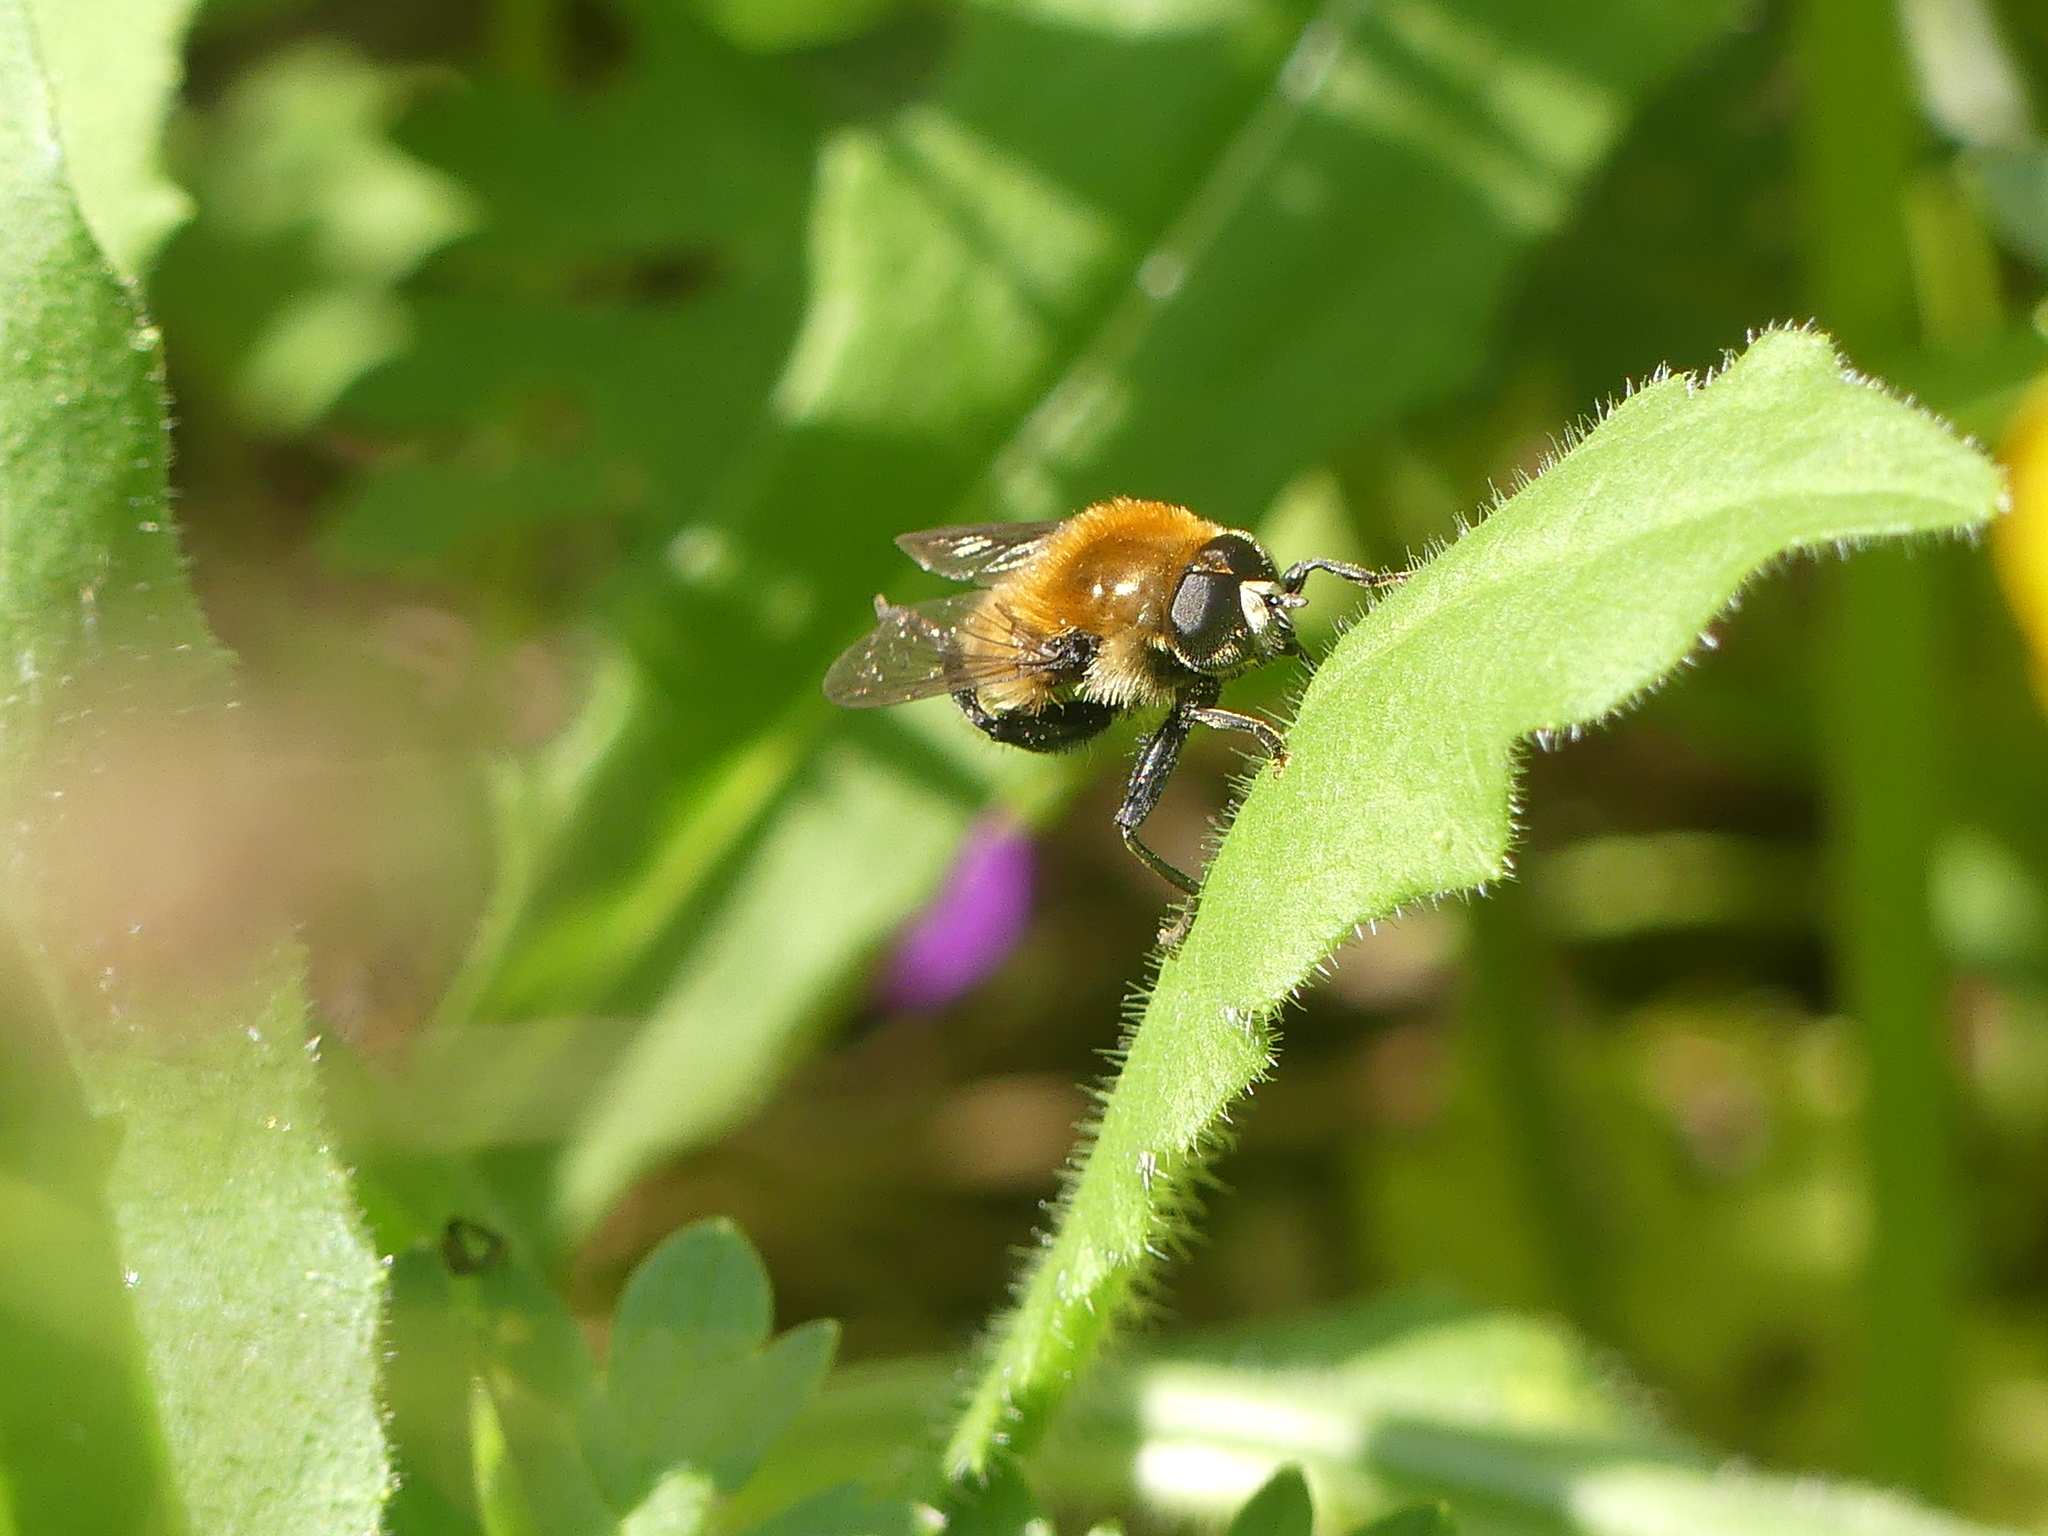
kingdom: Animalia
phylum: Arthropoda
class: Insecta
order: Diptera
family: Syrphidae
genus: Merodon
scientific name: Merodon equestris
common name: Greater bulb-fly
